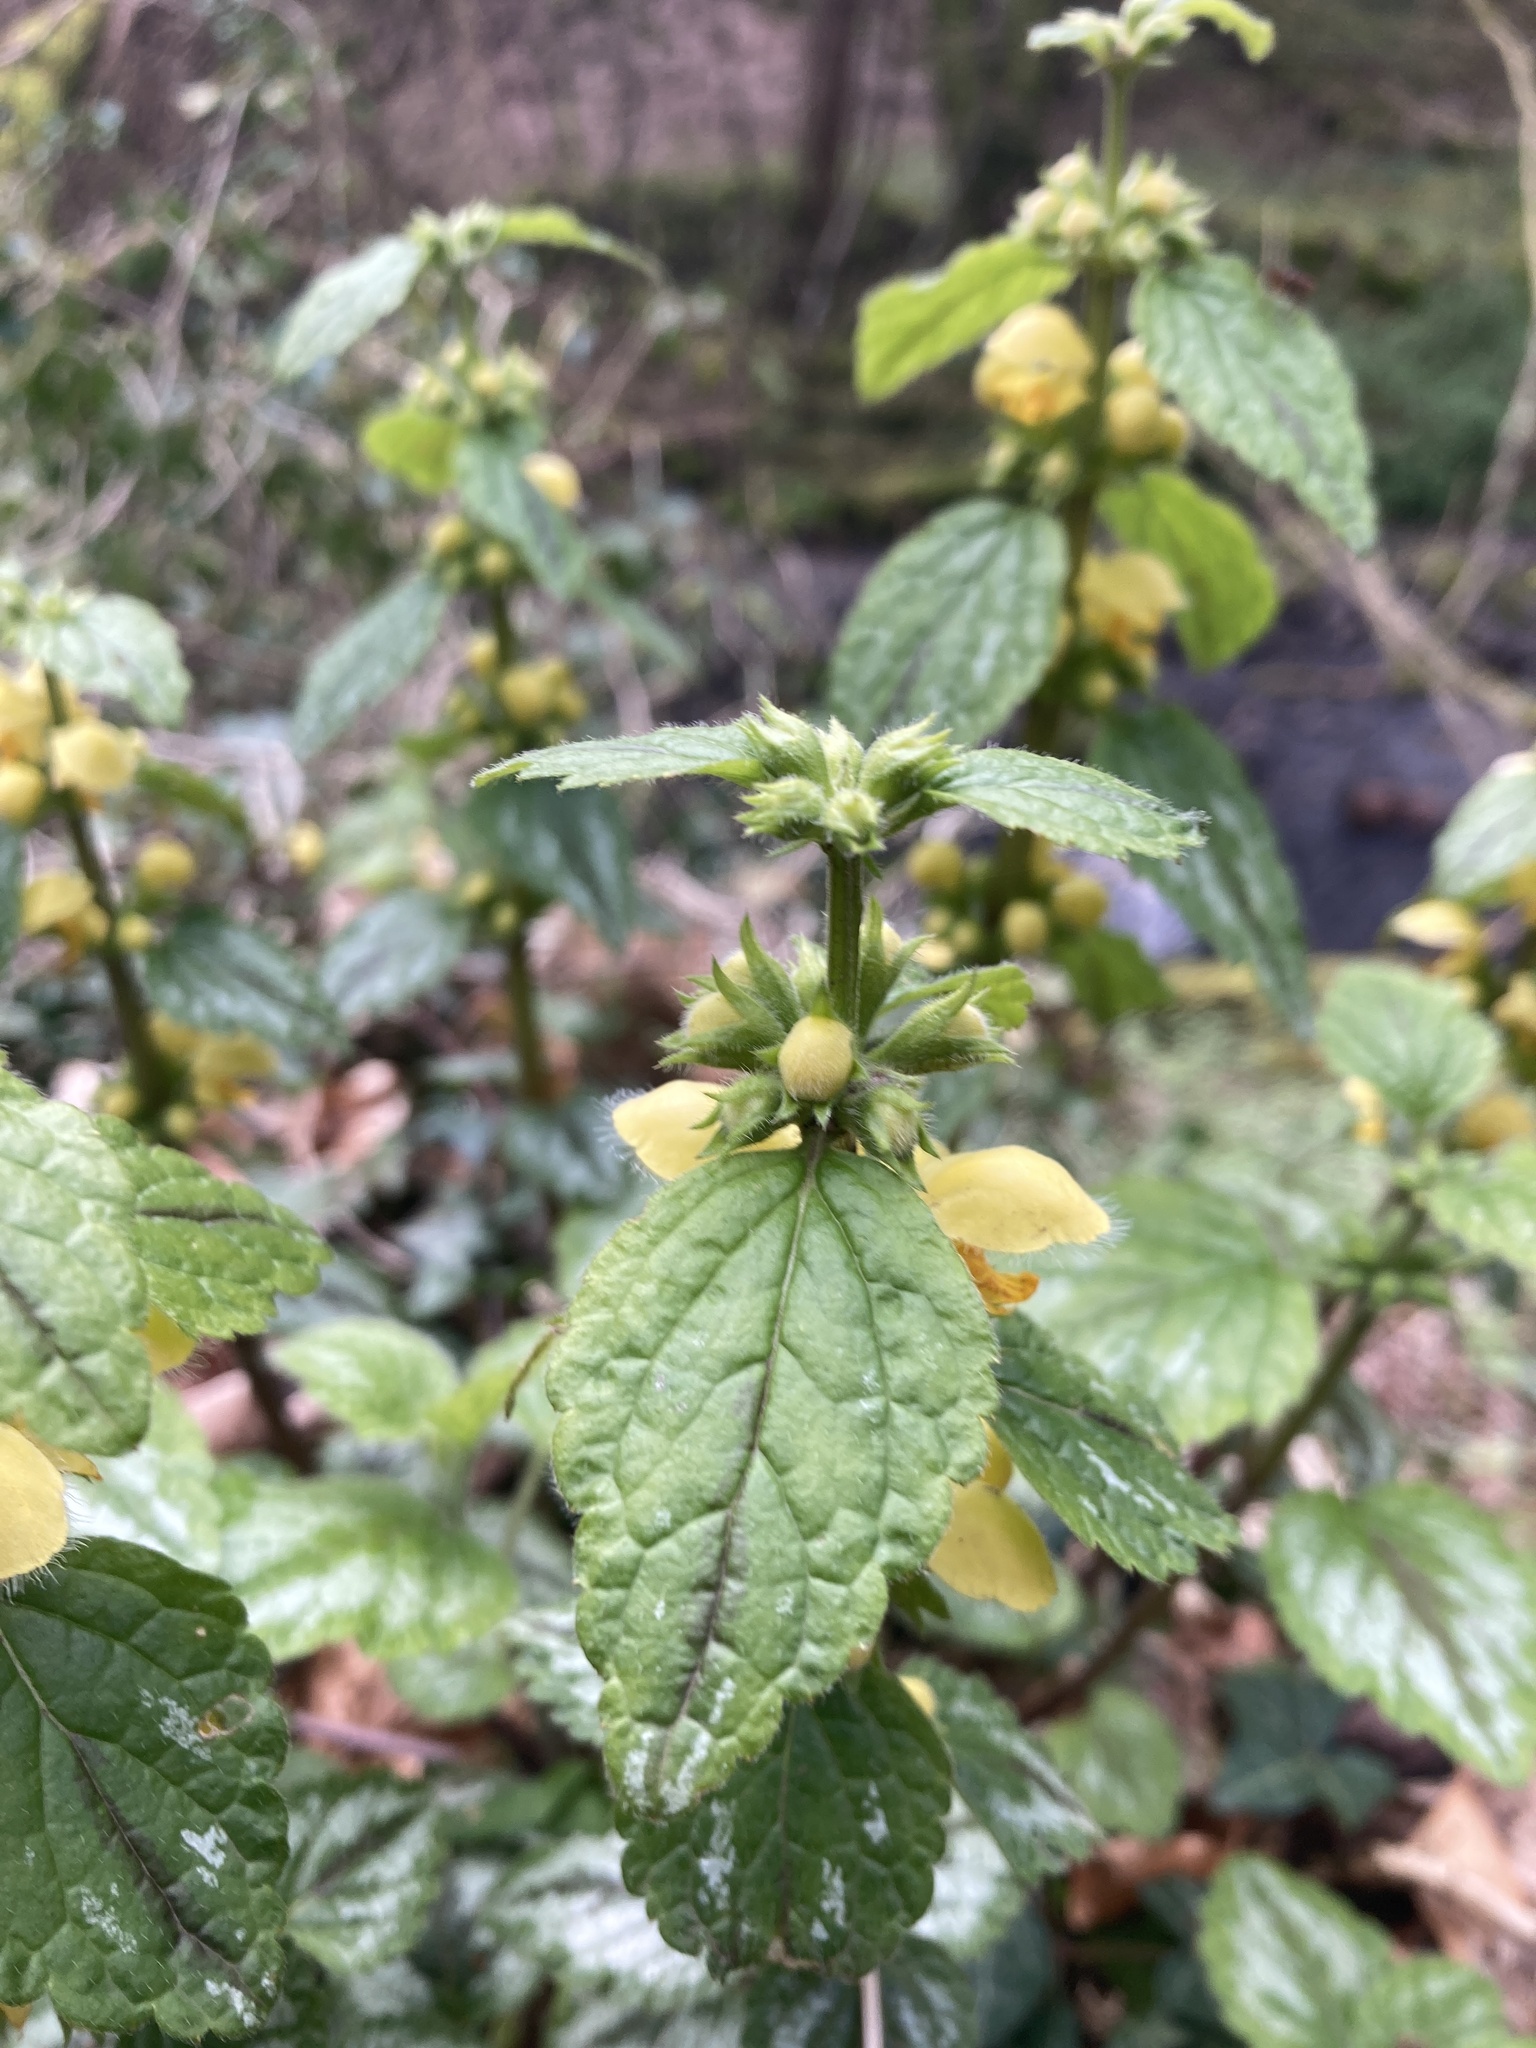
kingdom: Plantae
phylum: Tracheophyta
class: Magnoliopsida
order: Lamiales
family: Lamiaceae
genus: Lamium
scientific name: Lamium galeobdolon
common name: Yellow archangel
